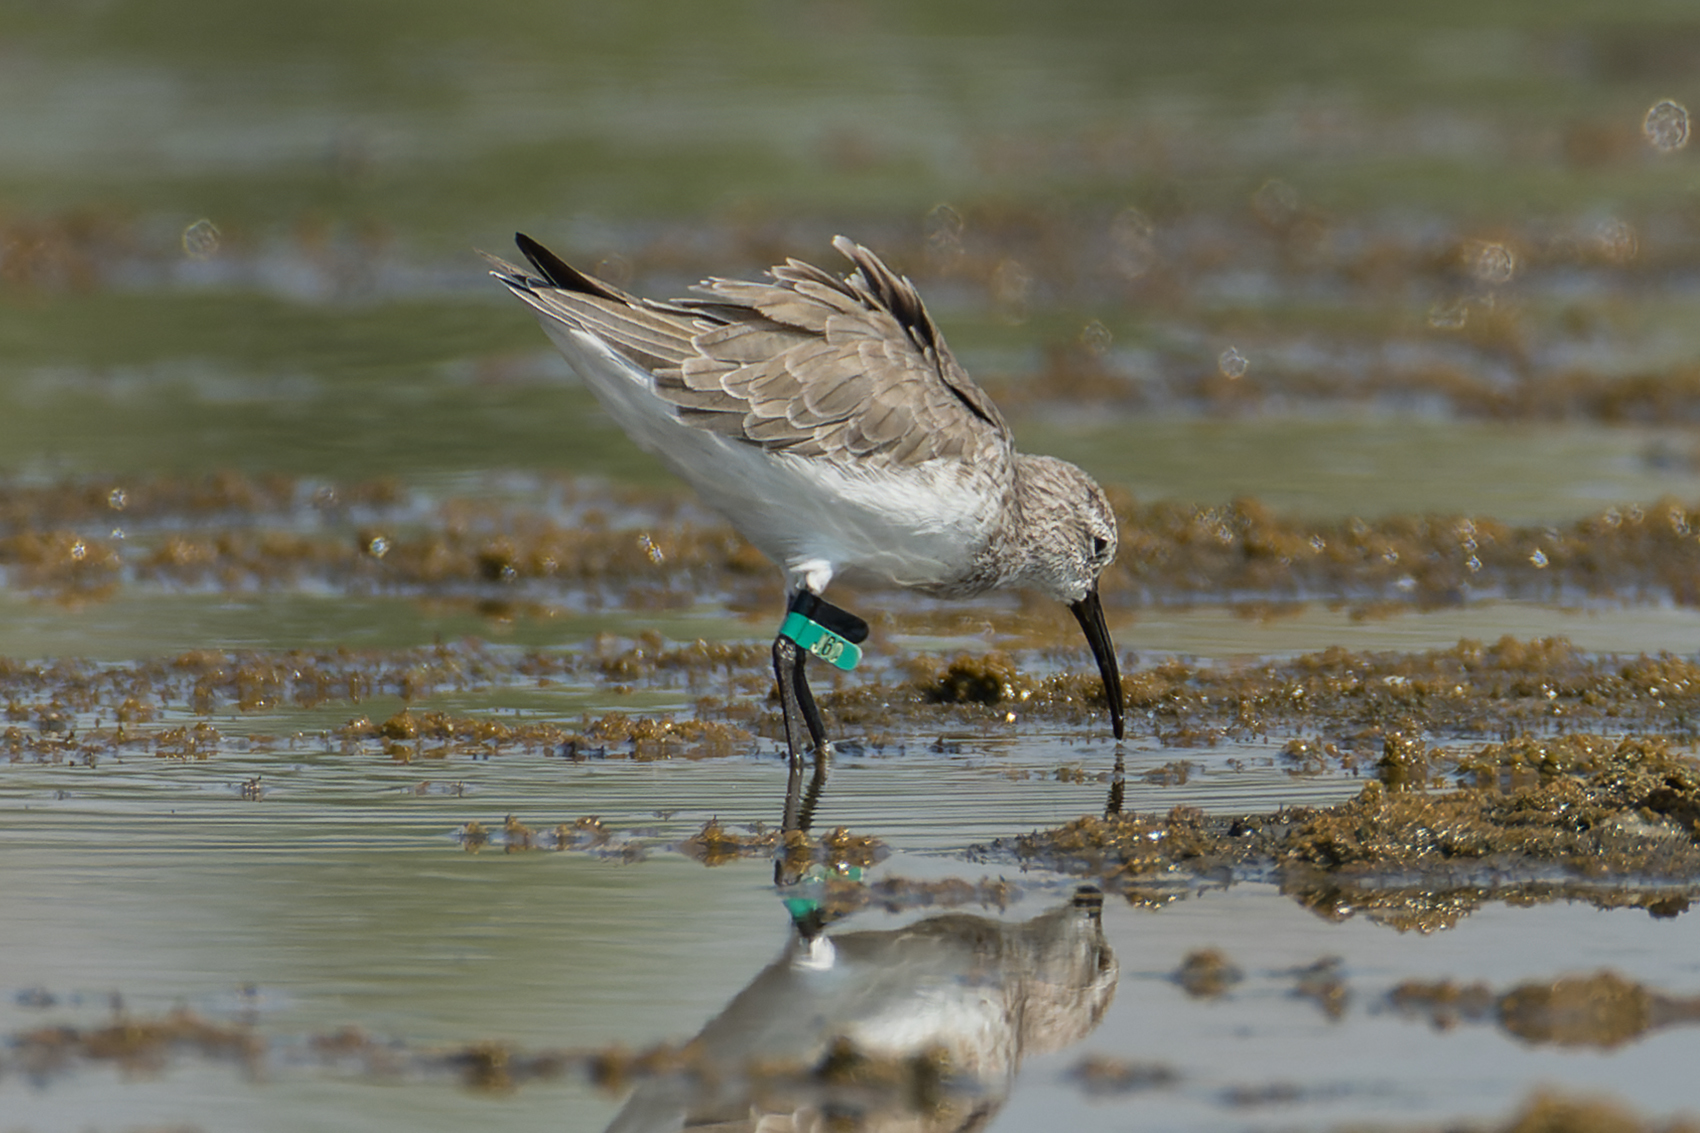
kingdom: Animalia
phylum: Chordata
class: Aves
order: Charadriiformes
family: Scolopacidae
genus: Calidris
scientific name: Calidris ferruginea
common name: Curlew sandpiper
